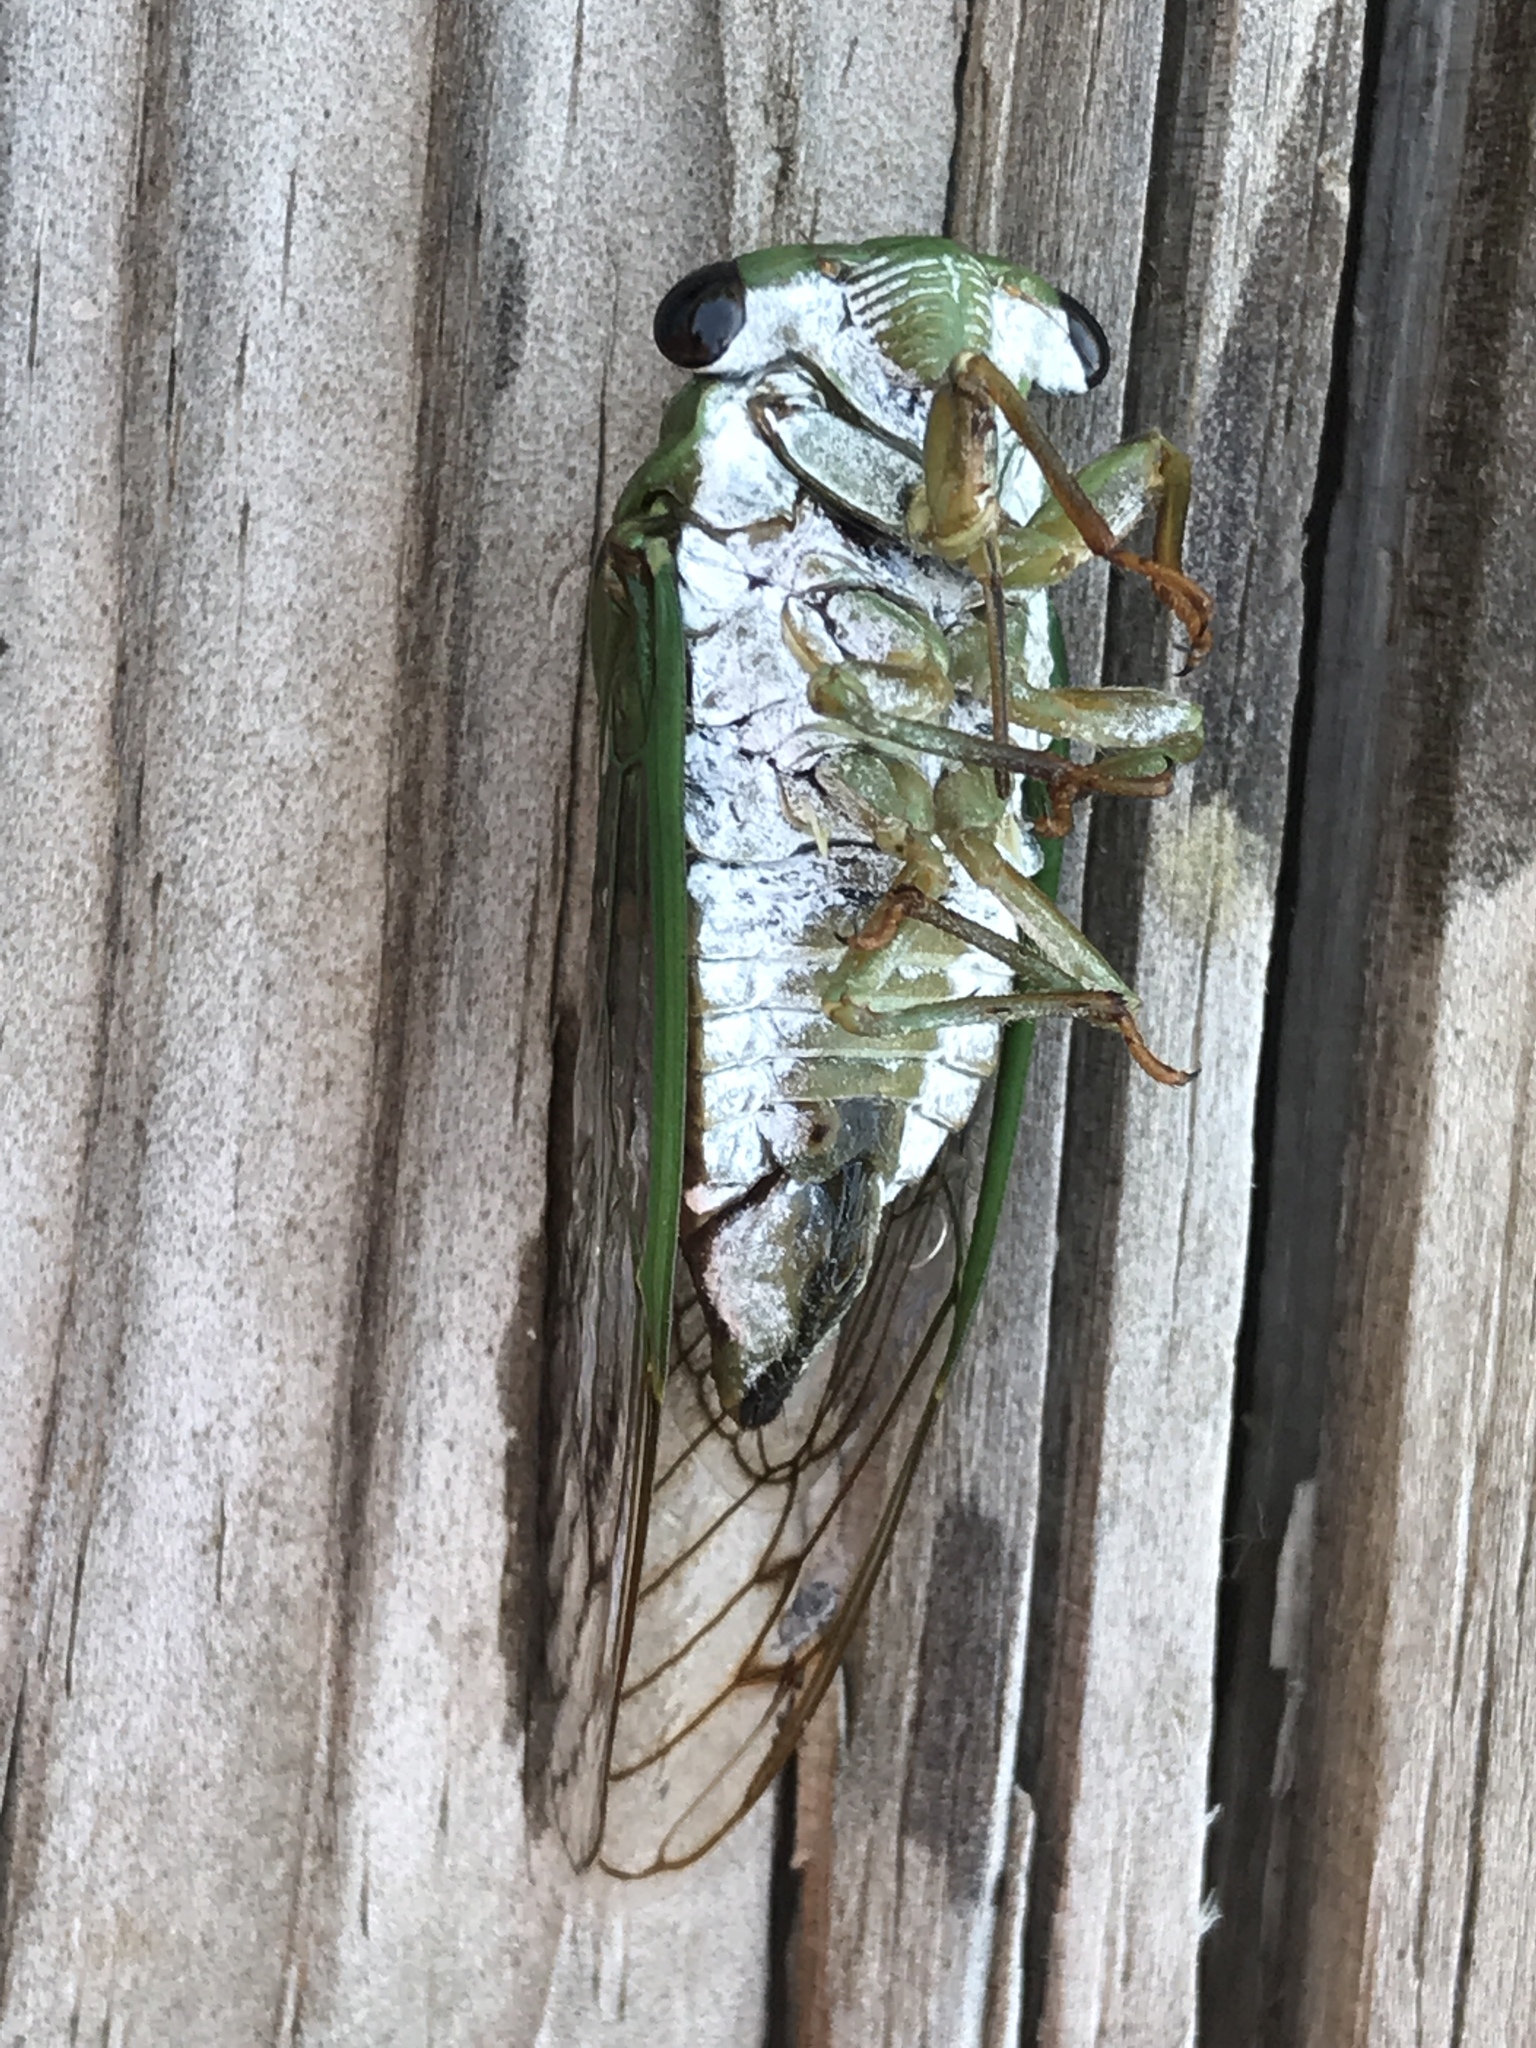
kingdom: Animalia
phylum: Arthropoda
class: Insecta
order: Hemiptera
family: Cicadidae
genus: Neotibicen
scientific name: Neotibicen superbus
